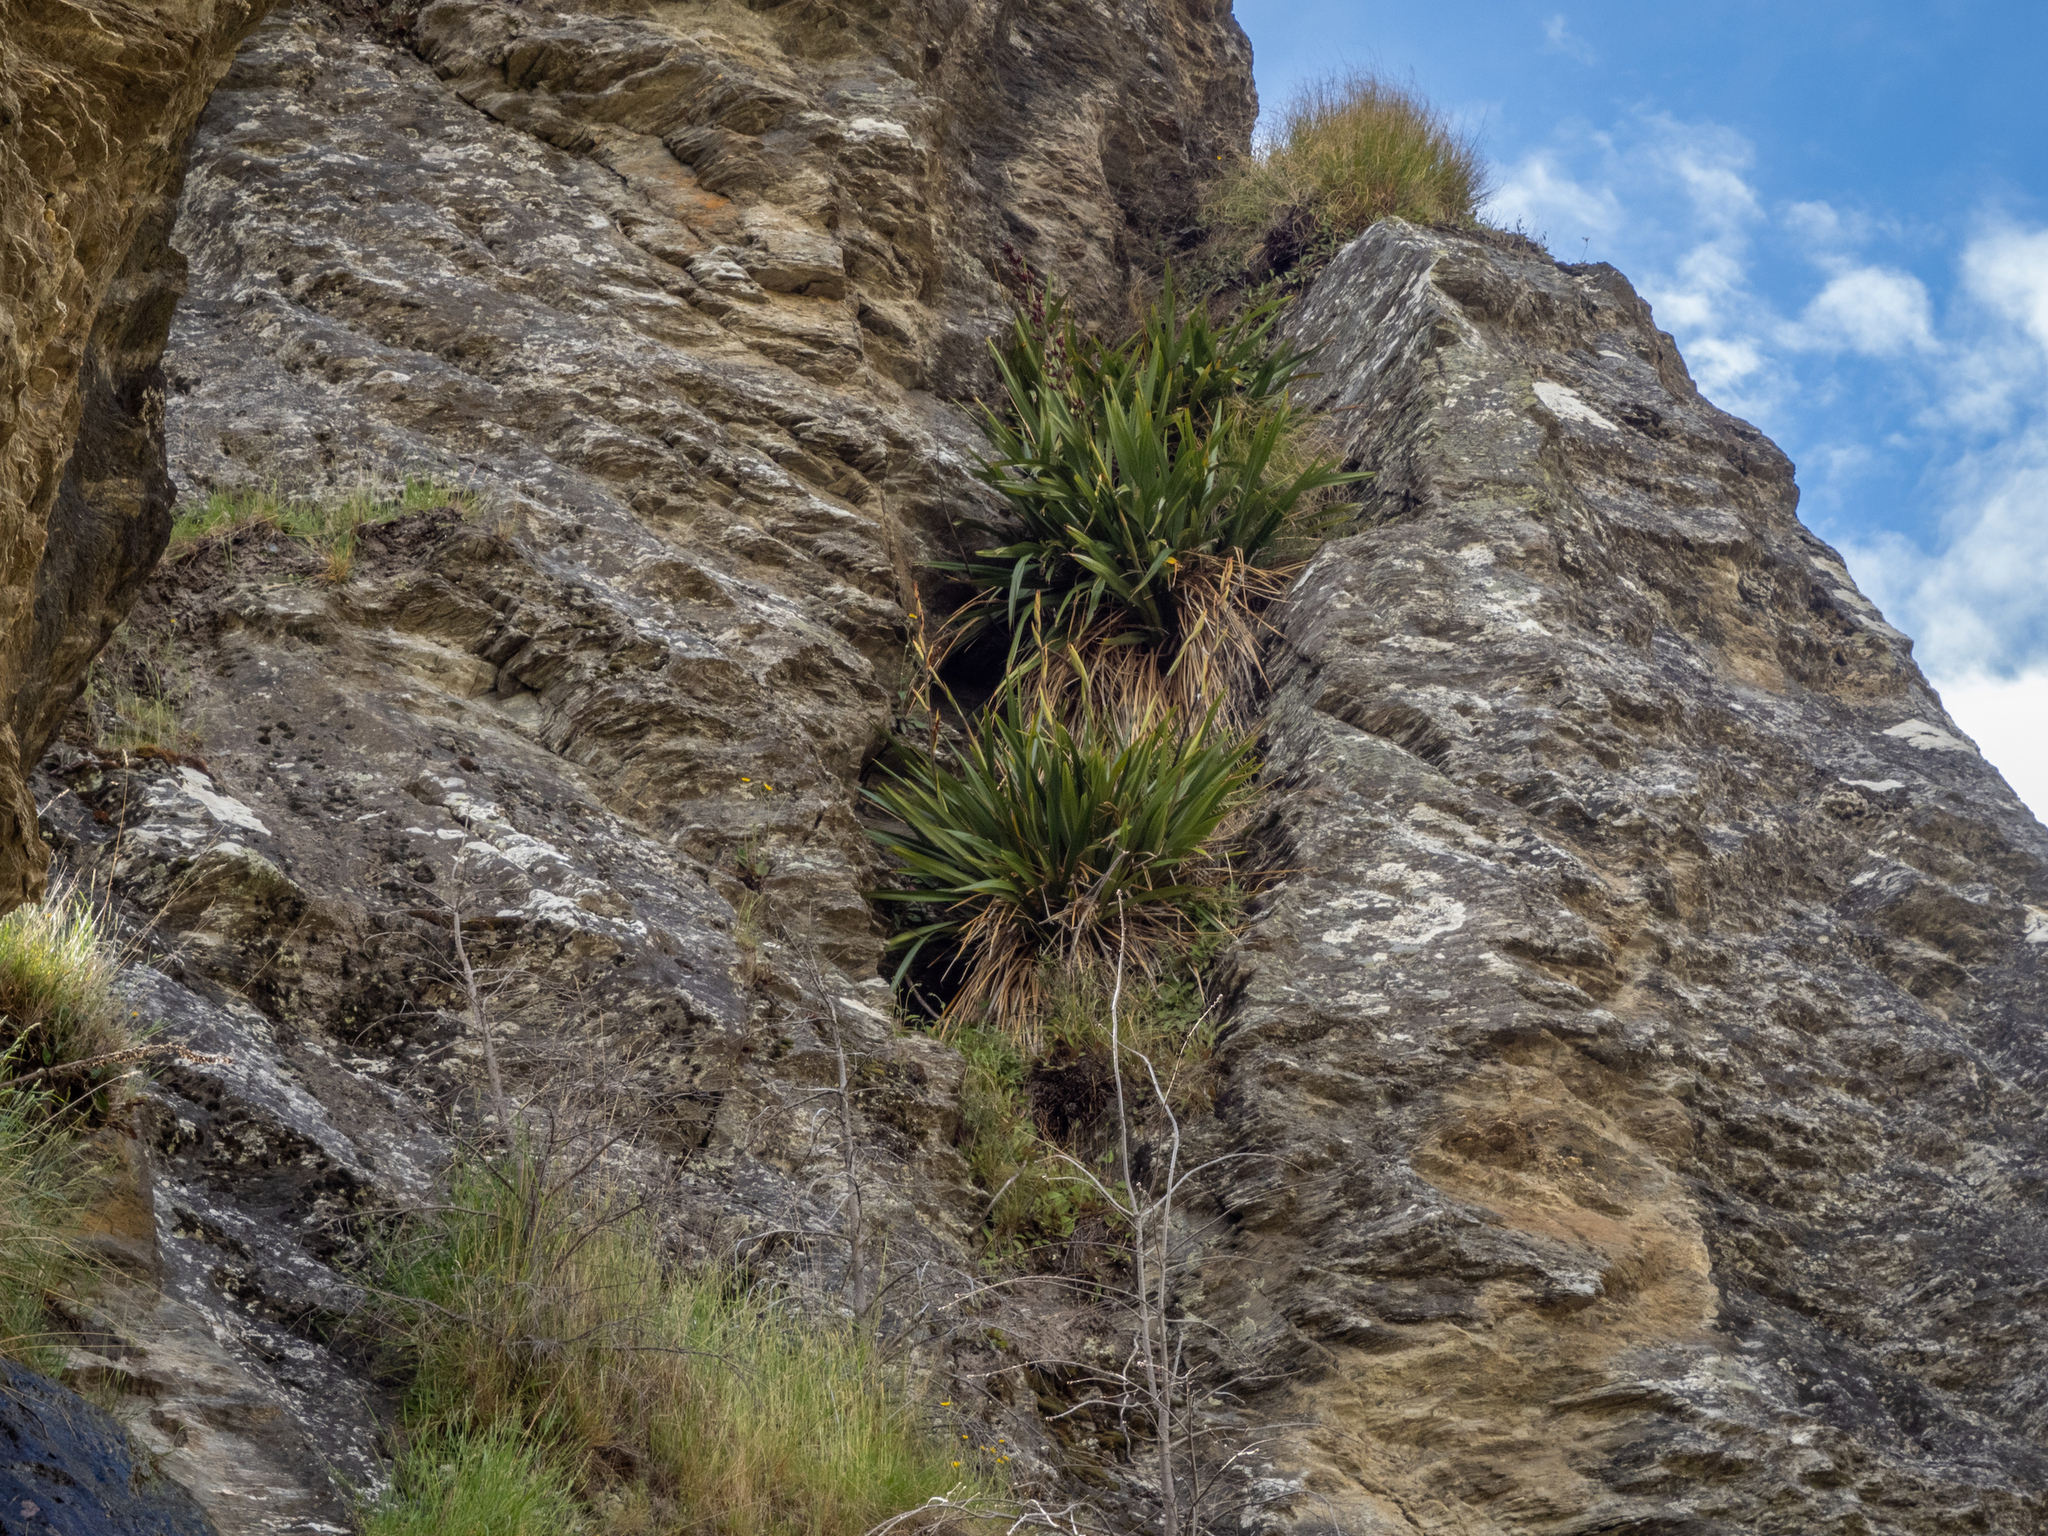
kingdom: Plantae
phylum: Tracheophyta
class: Liliopsida
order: Asparagales
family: Asphodelaceae
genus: Phormium
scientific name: Phormium colensoi
